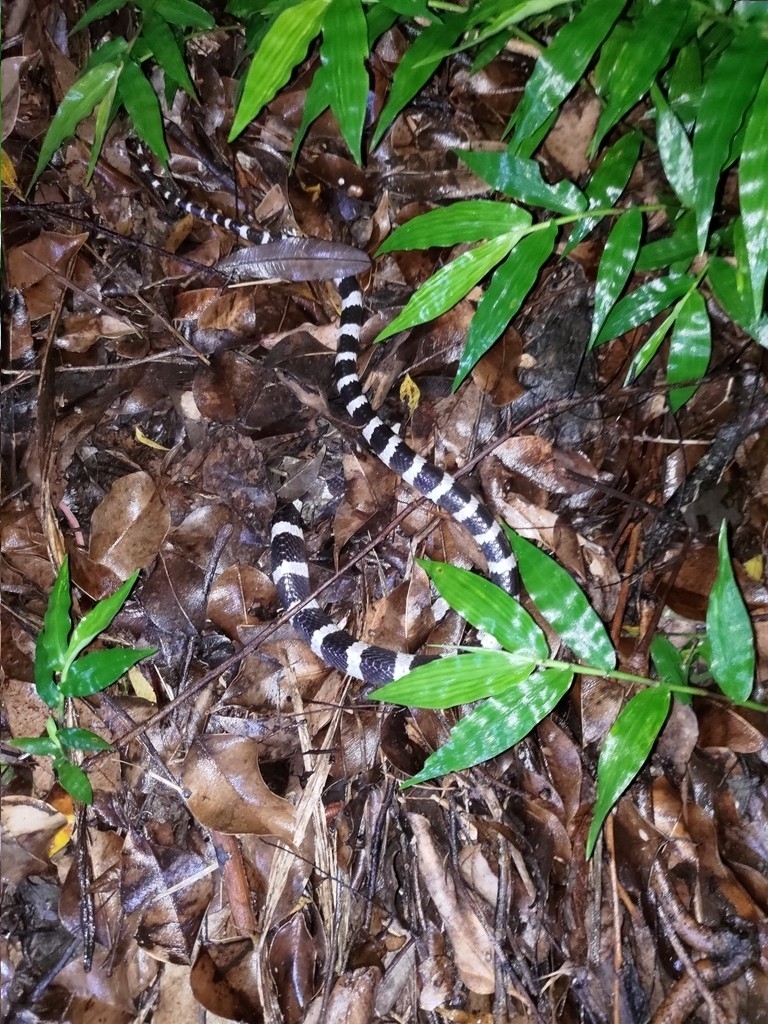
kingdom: Animalia
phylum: Chordata
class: Squamata
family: Elapidae
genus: Bungarus
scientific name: Bungarus multicinctus
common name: Many-banded krait
